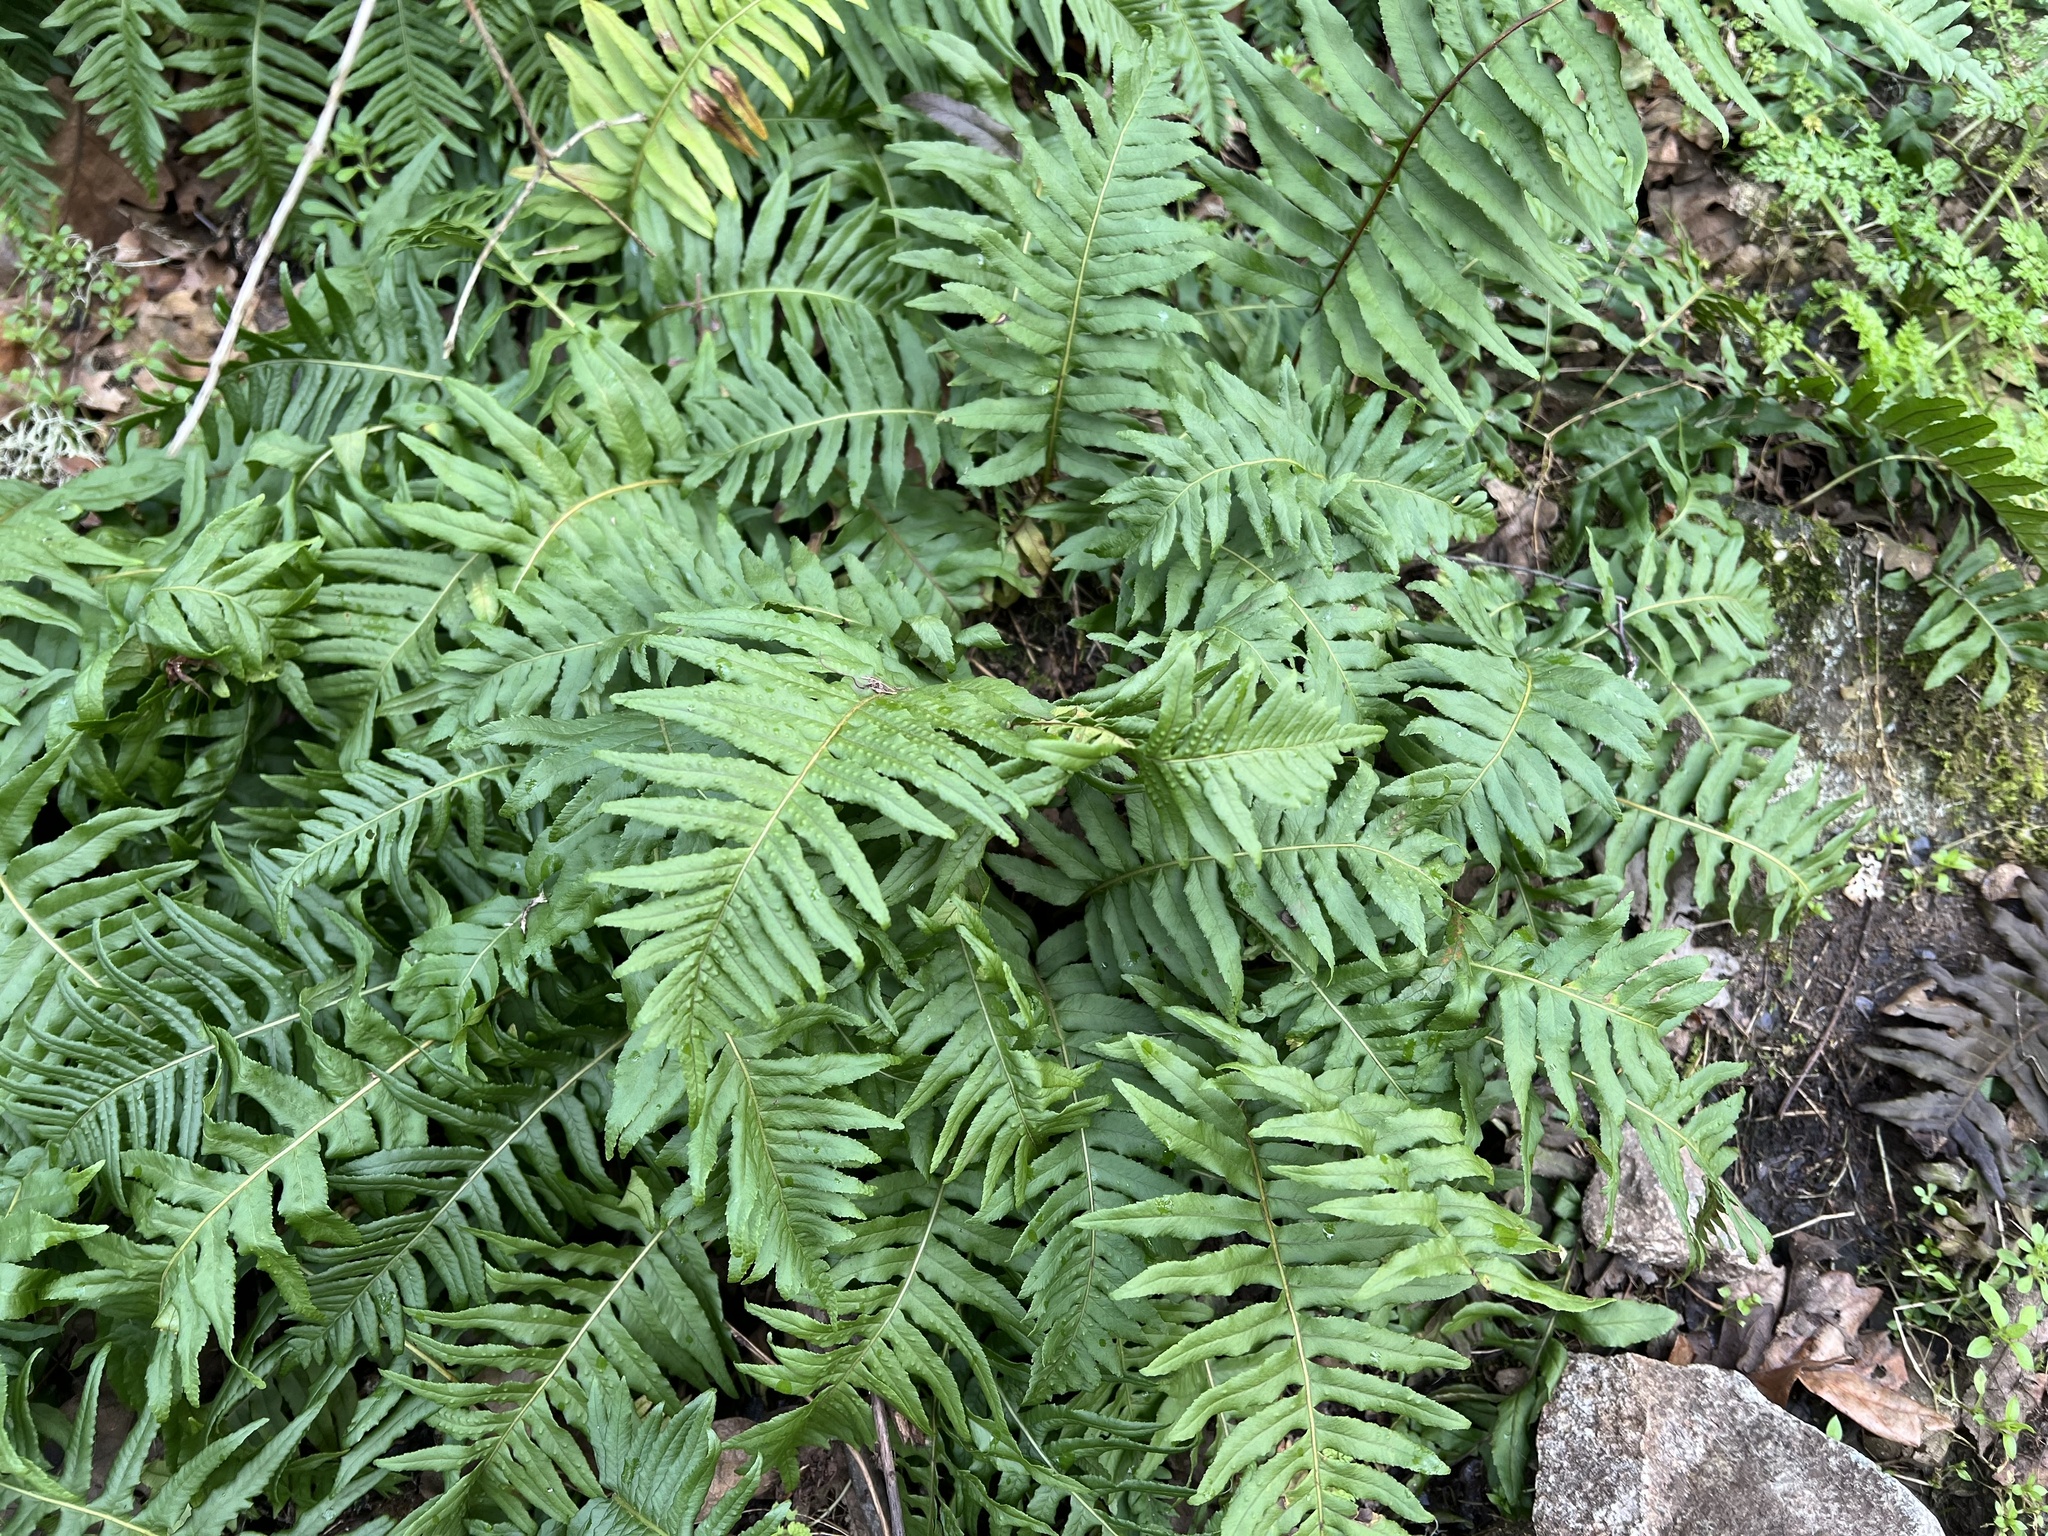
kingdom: Plantae
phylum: Tracheophyta
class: Polypodiopsida
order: Polypodiales
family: Polypodiaceae
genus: Polypodium
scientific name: Polypodium glycyrrhiza
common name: Licorice fern
